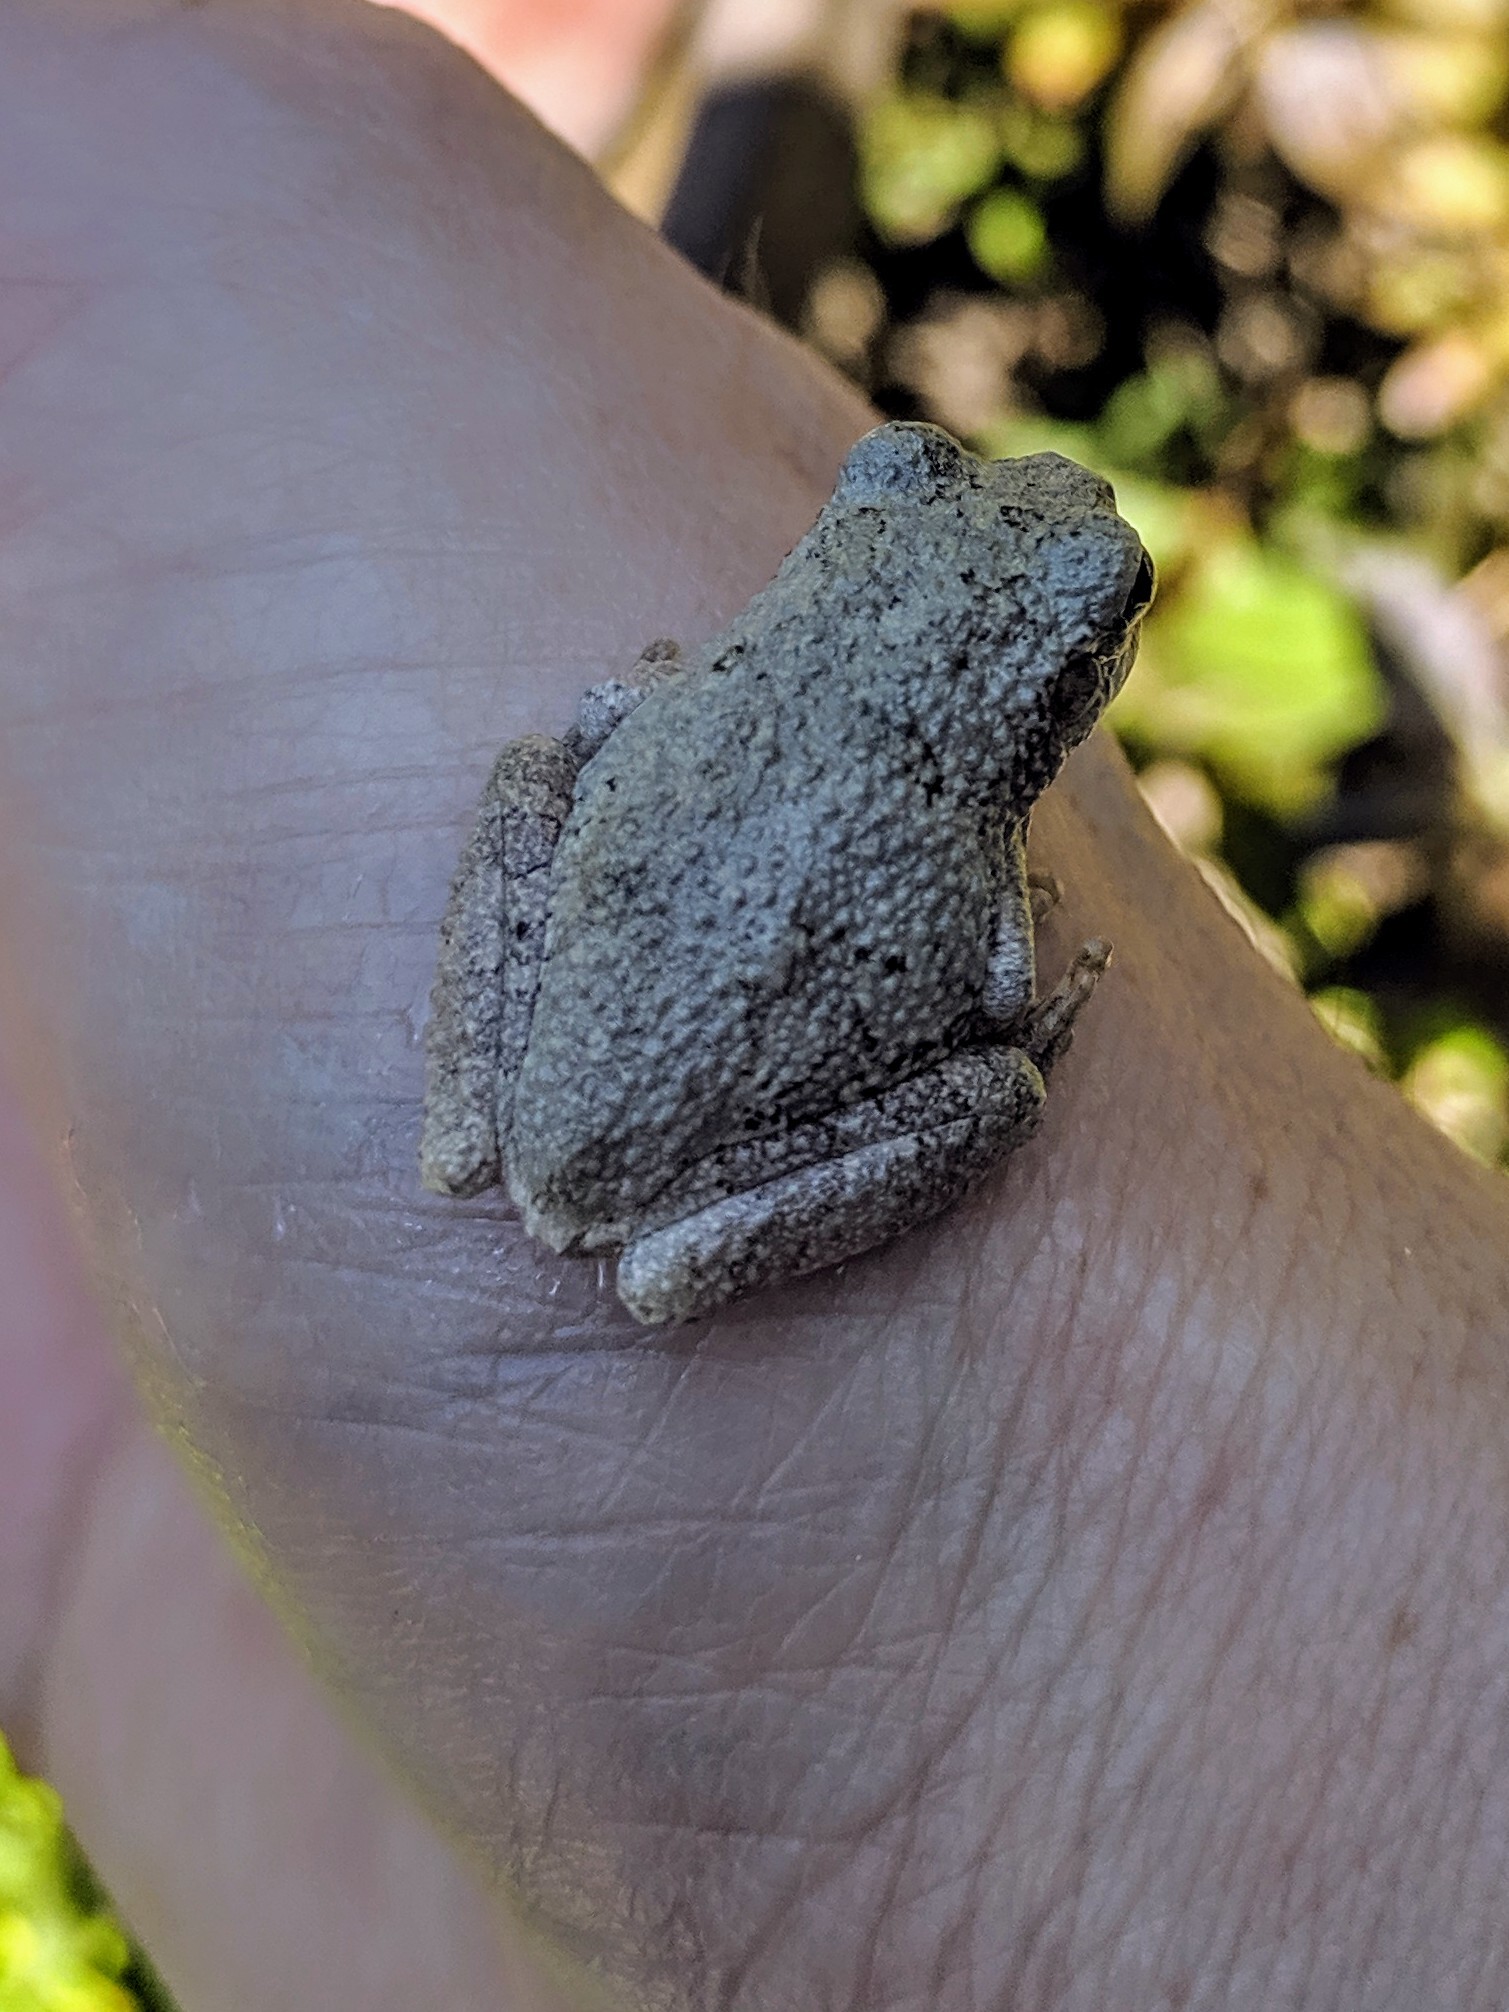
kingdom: Animalia
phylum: Chordata
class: Amphibia
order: Anura
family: Hylidae
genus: Hyla
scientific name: Hyla
